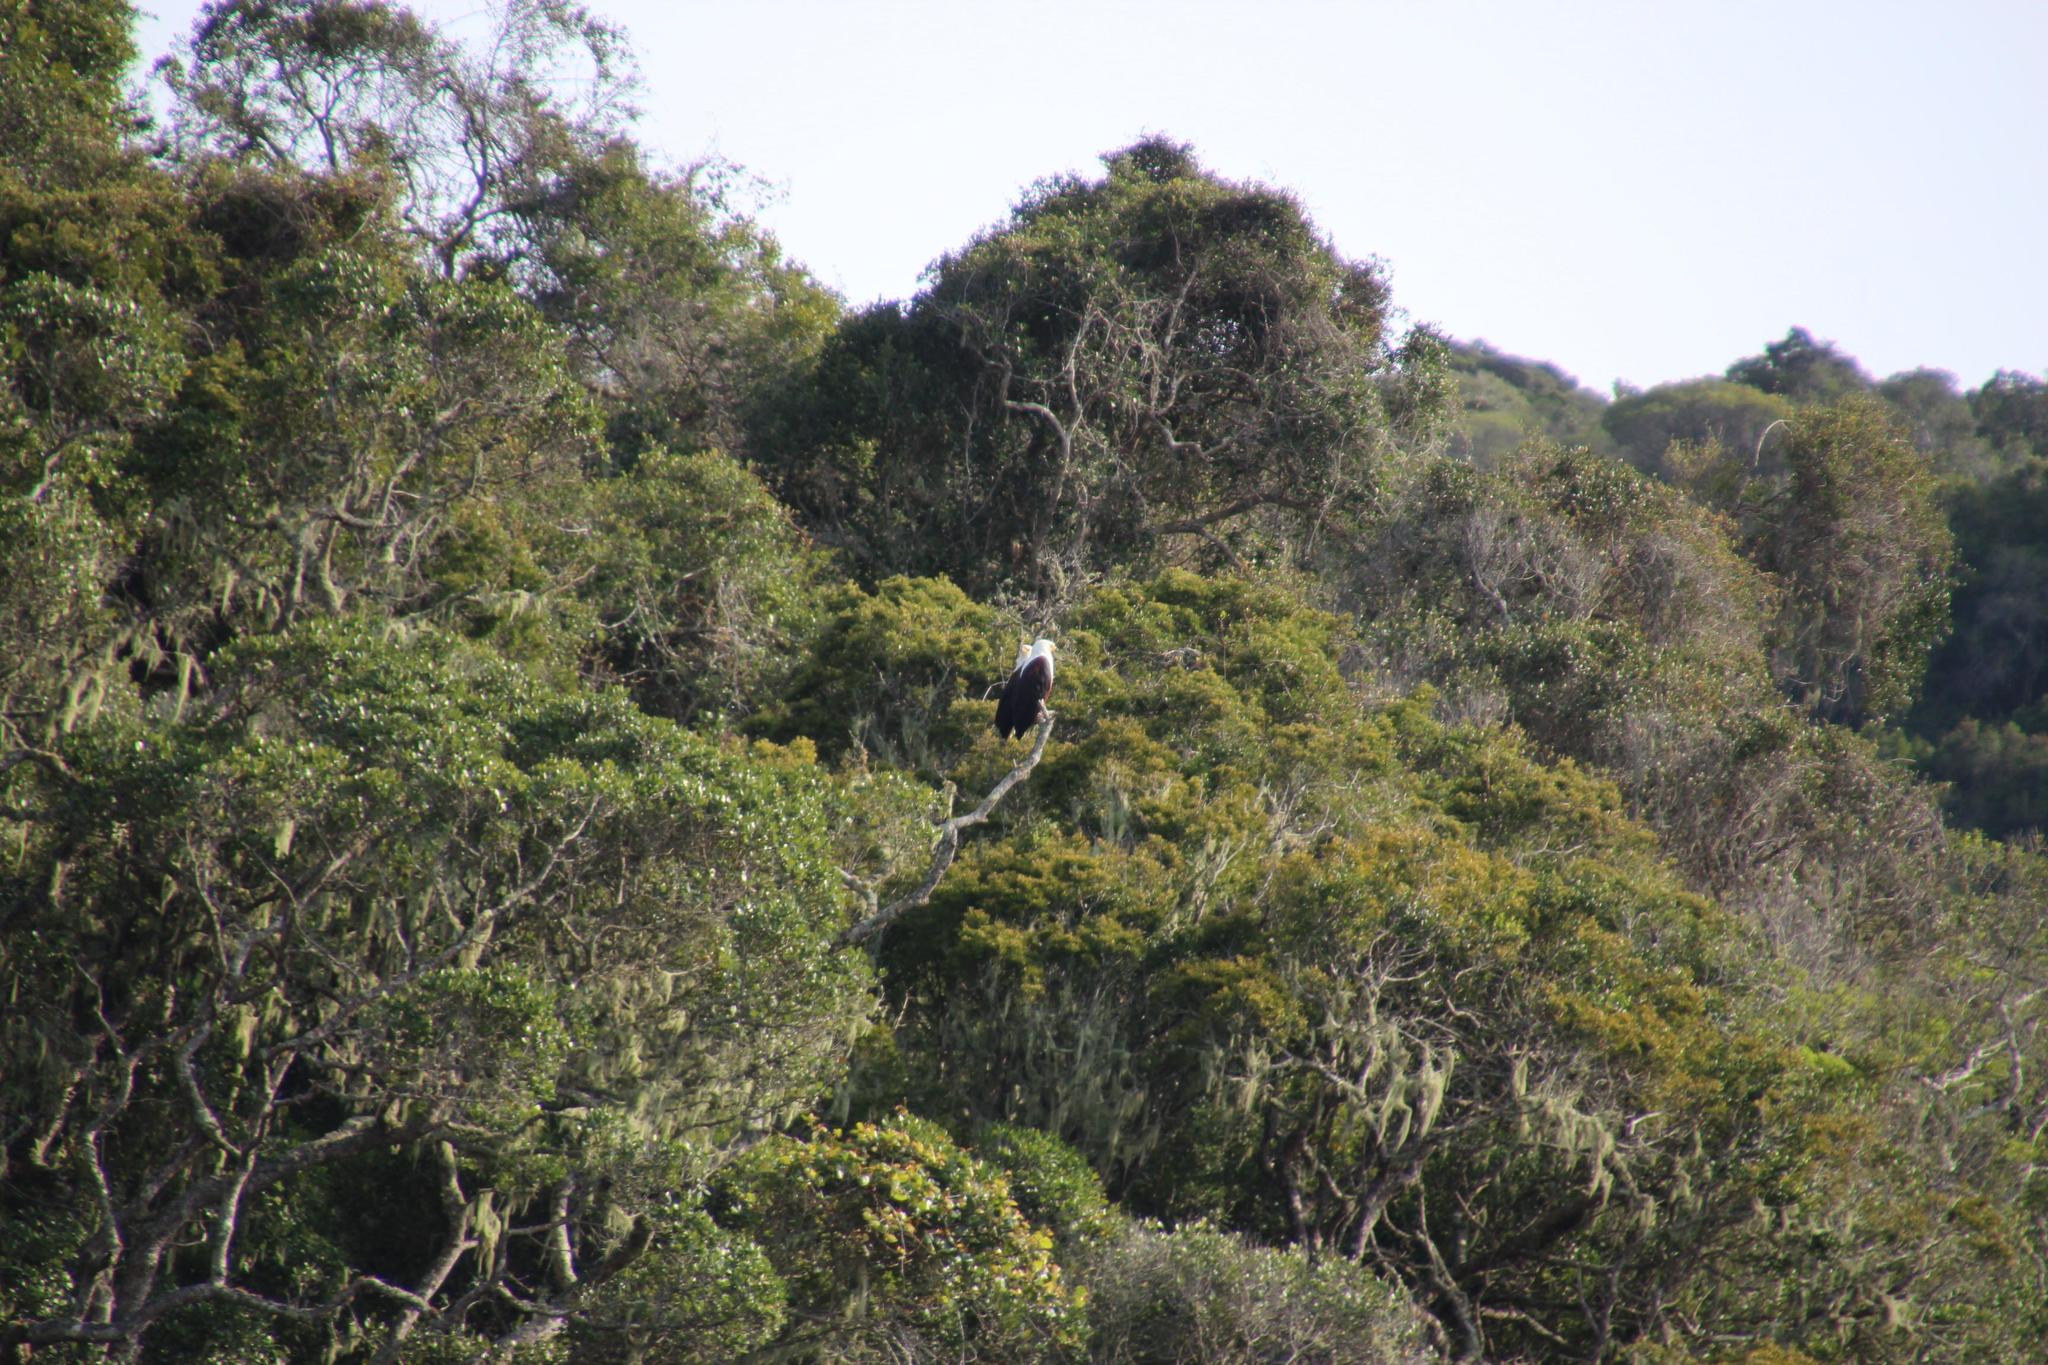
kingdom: Animalia
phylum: Chordata
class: Aves
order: Accipitriformes
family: Accipitridae
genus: Haliaeetus
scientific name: Haliaeetus vocifer
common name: African fish eagle
